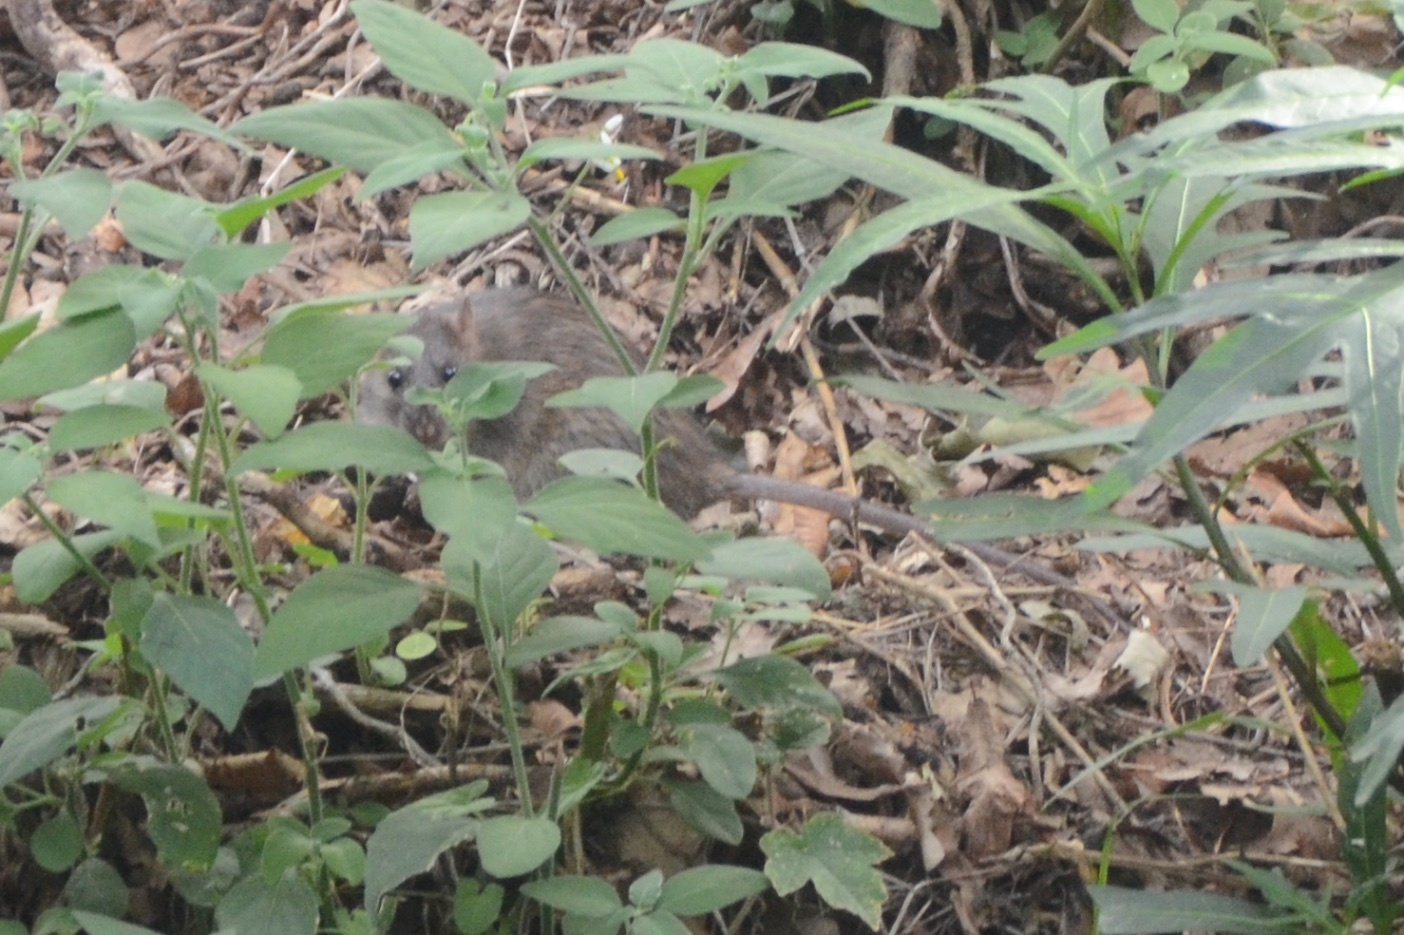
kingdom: Animalia
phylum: Chordata
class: Mammalia
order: Rodentia
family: Muridae
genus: Rattus
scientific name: Rattus norvegicus
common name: Brown rat
